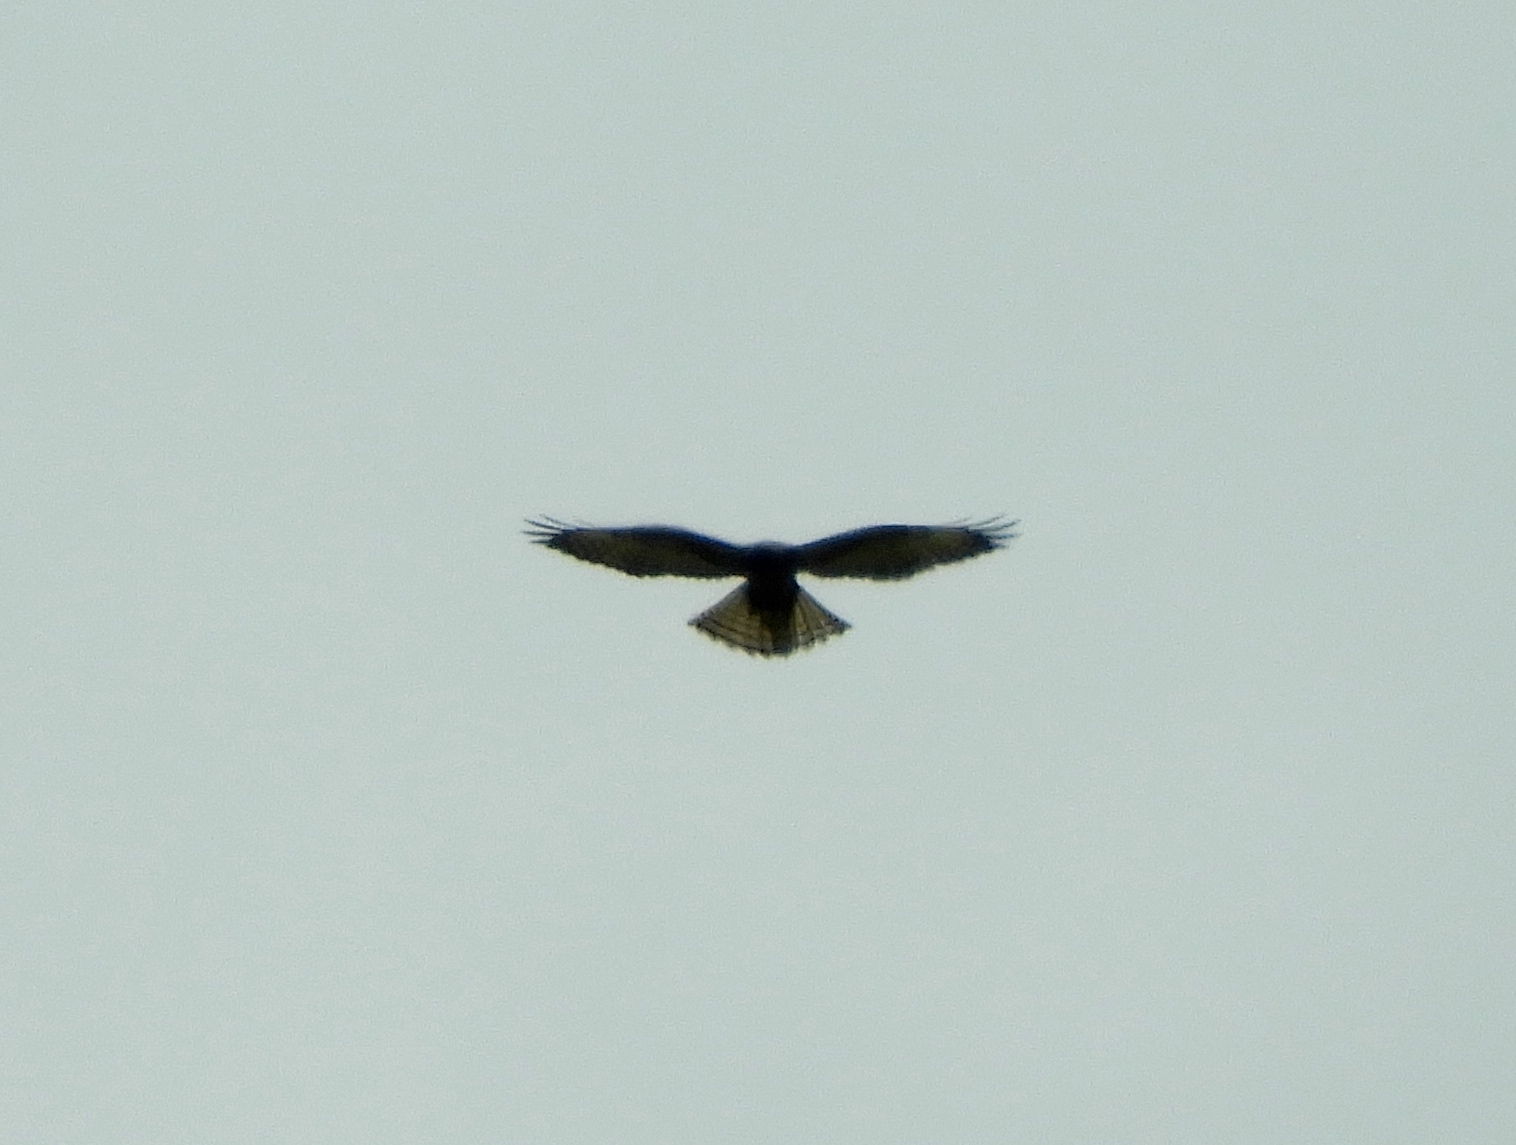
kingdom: Animalia
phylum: Chordata
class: Aves
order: Accipitriformes
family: Accipitridae
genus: Buteo
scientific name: Buteo jamaicensis
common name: Red-tailed hawk
